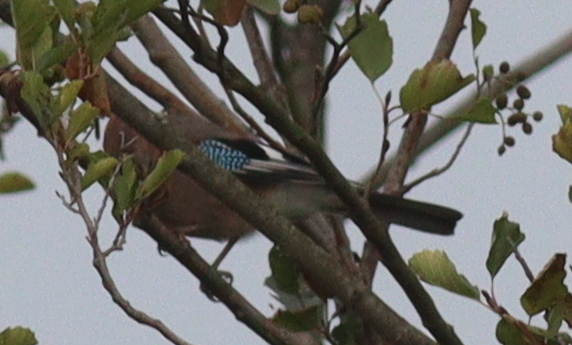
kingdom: Animalia
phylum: Chordata
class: Aves
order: Passeriformes
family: Corvidae
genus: Garrulus
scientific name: Garrulus glandarius
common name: Eurasian jay
